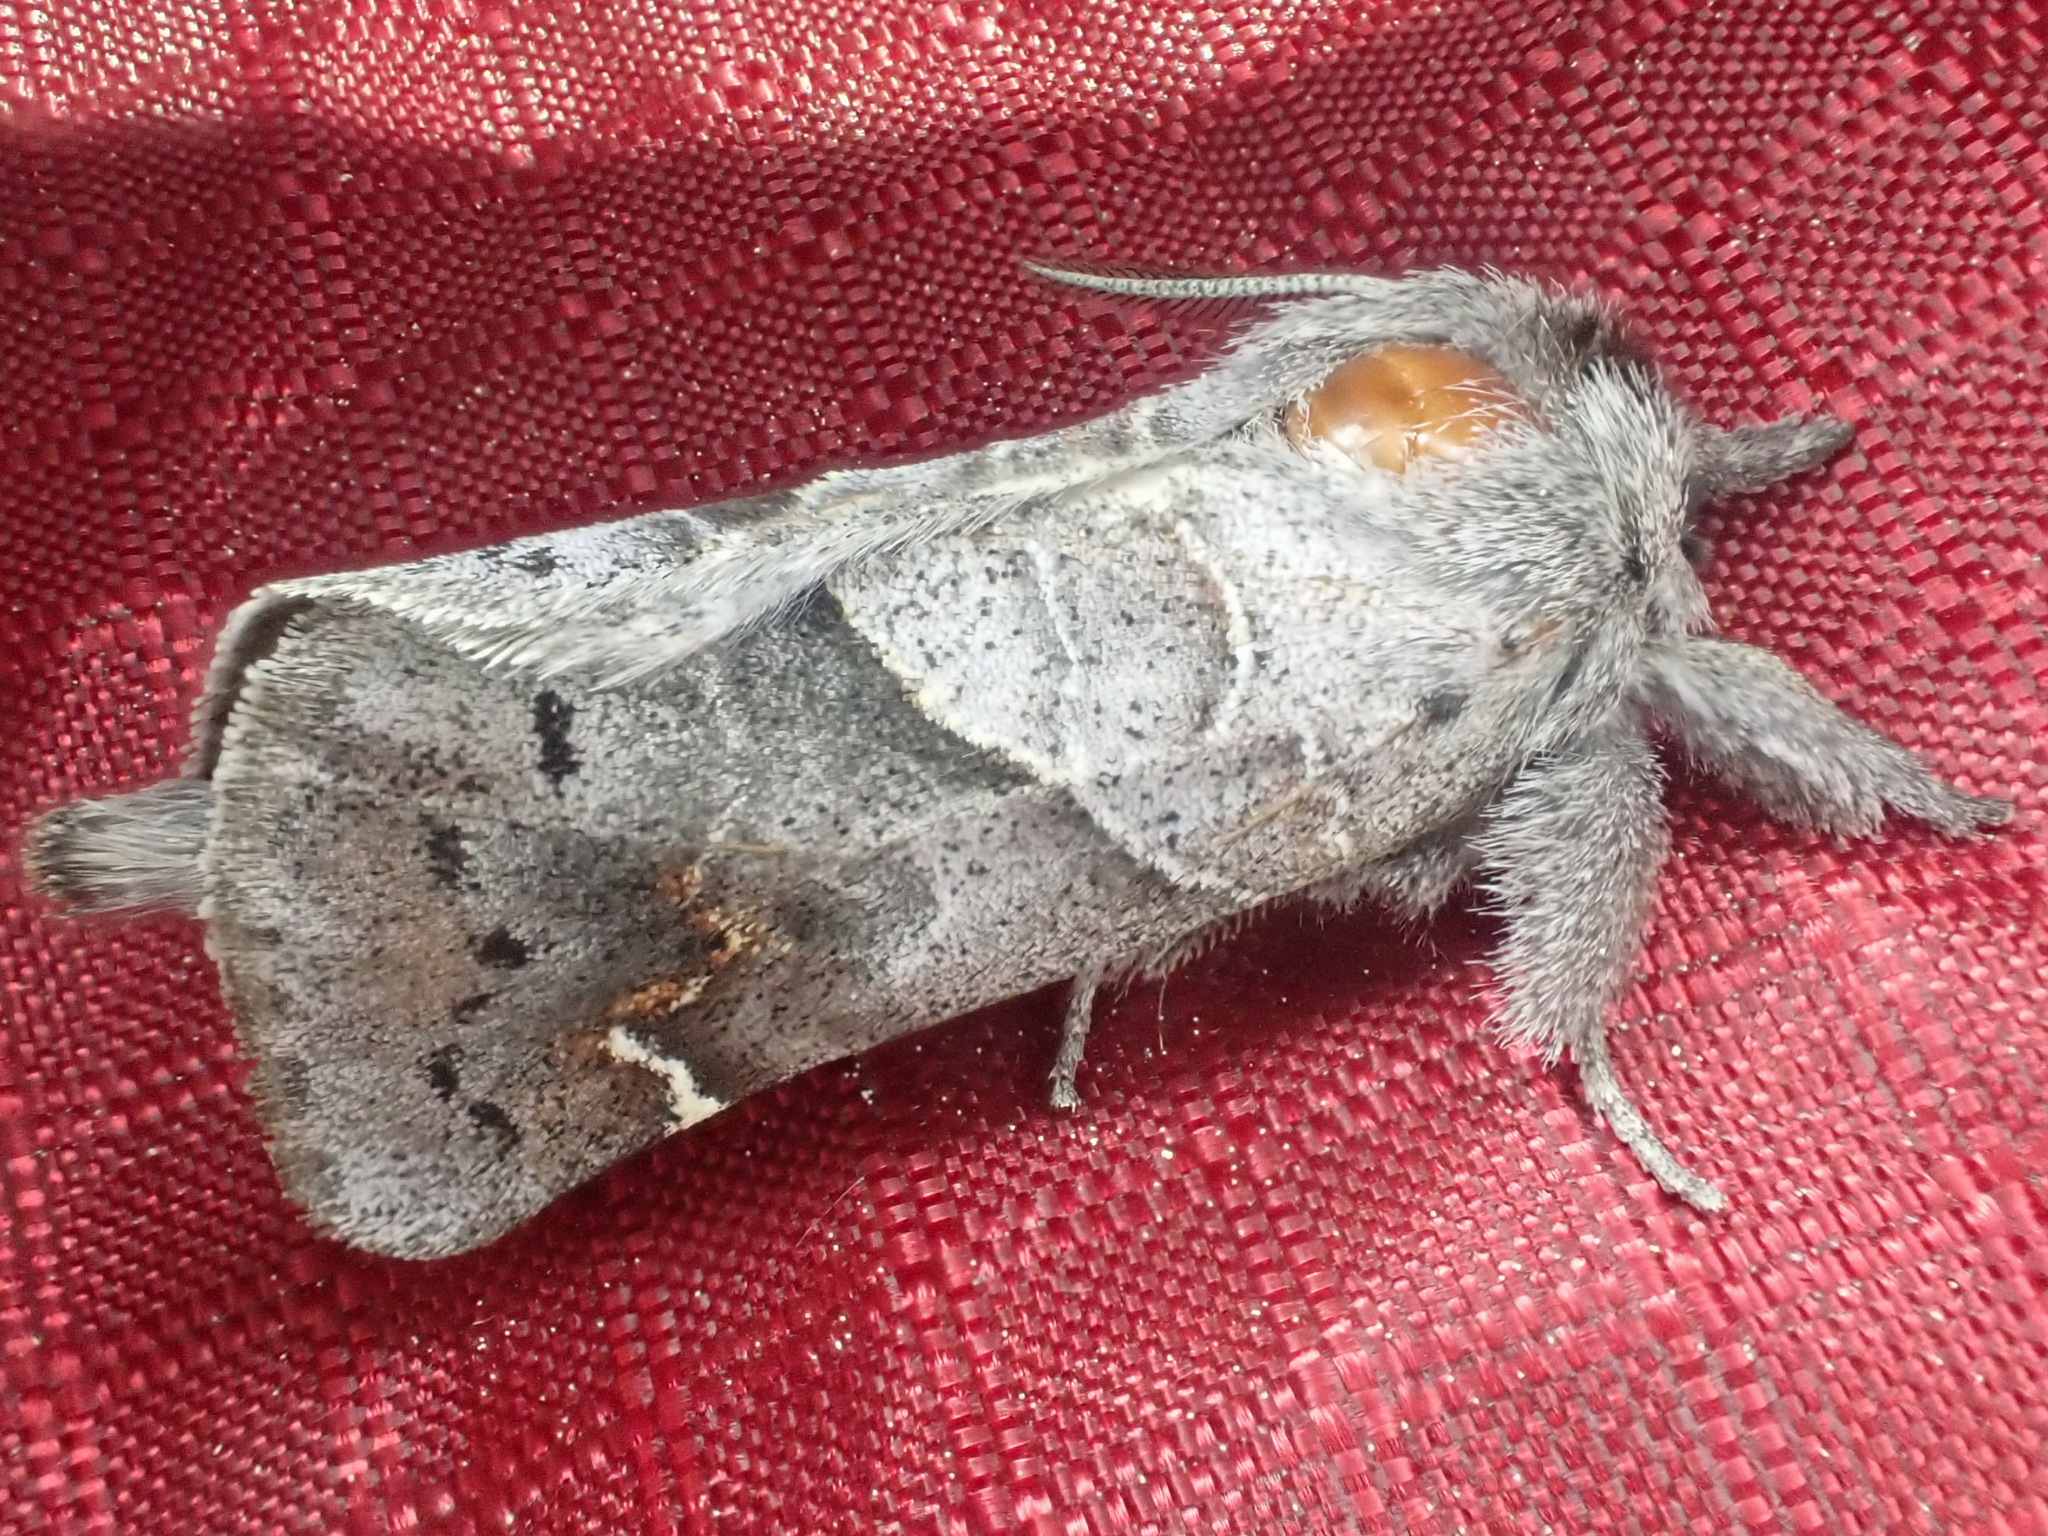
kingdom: Animalia
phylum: Arthropoda
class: Insecta
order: Lepidoptera
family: Notodontidae
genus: Clostera
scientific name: Clostera apicalis
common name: Apical prominent
